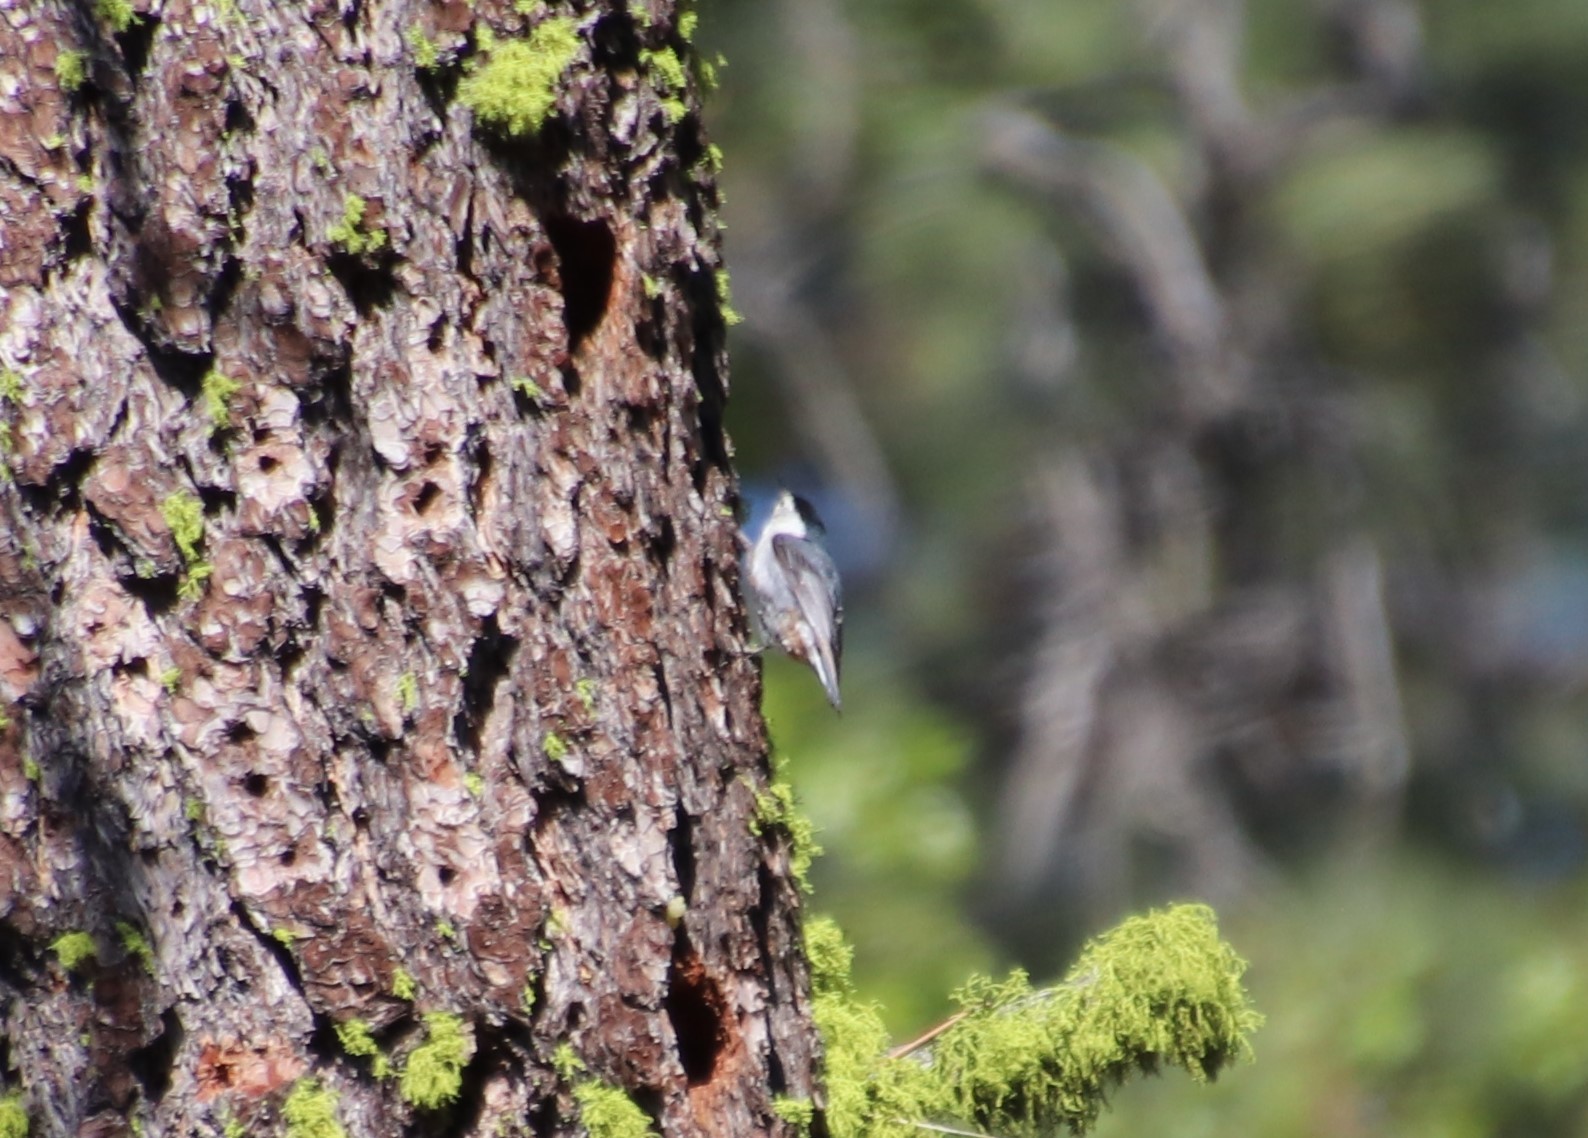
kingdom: Animalia
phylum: Chordata
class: Aves
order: Passeriformes
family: Sittidae
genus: Sitta
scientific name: Sitta carolinensis
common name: White-breasted nuthatch
